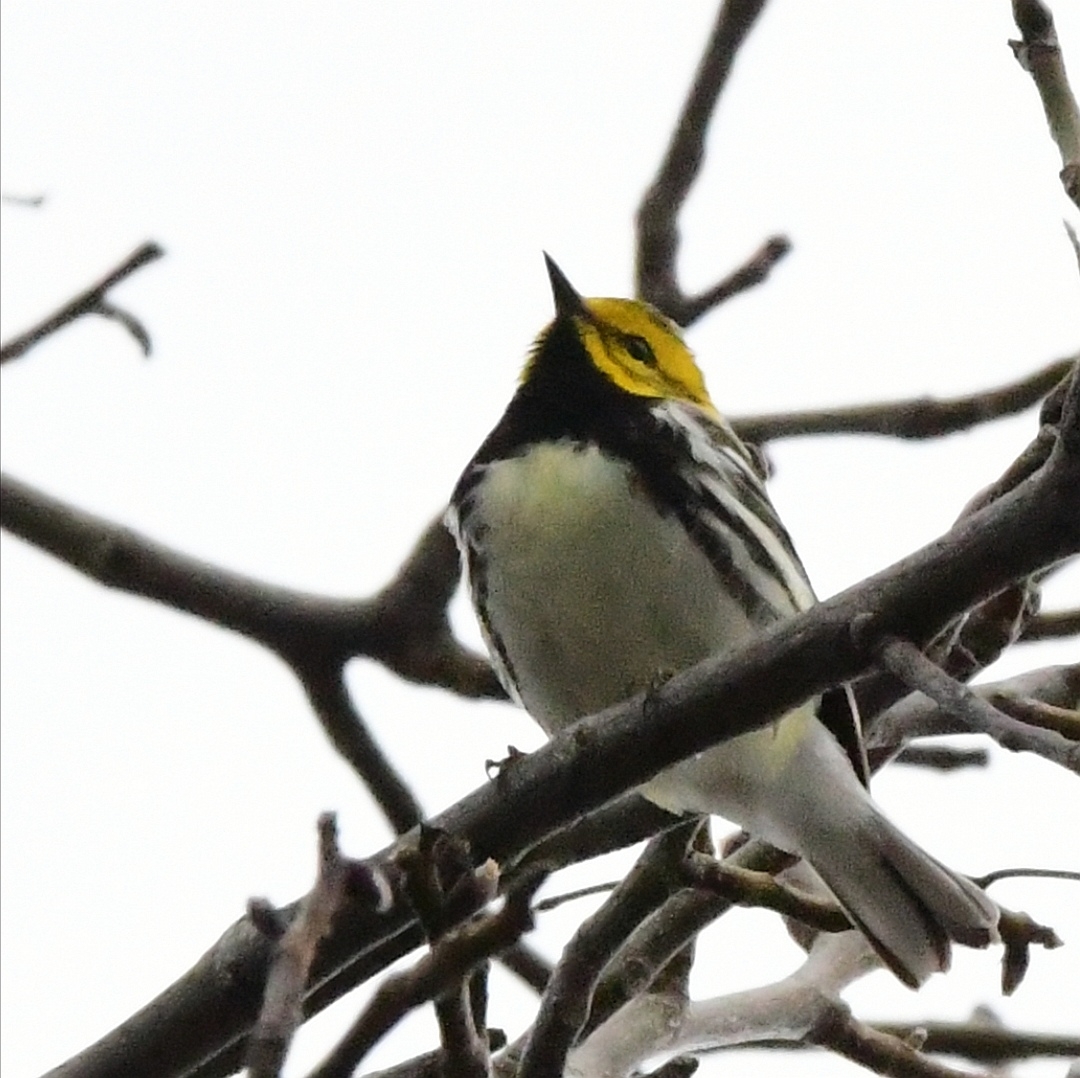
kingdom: Animalia
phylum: Chordata
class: Aves
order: Passeriformes
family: Parulidae
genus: Setophaga
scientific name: Setophaga virens
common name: Black-throated green warbler
